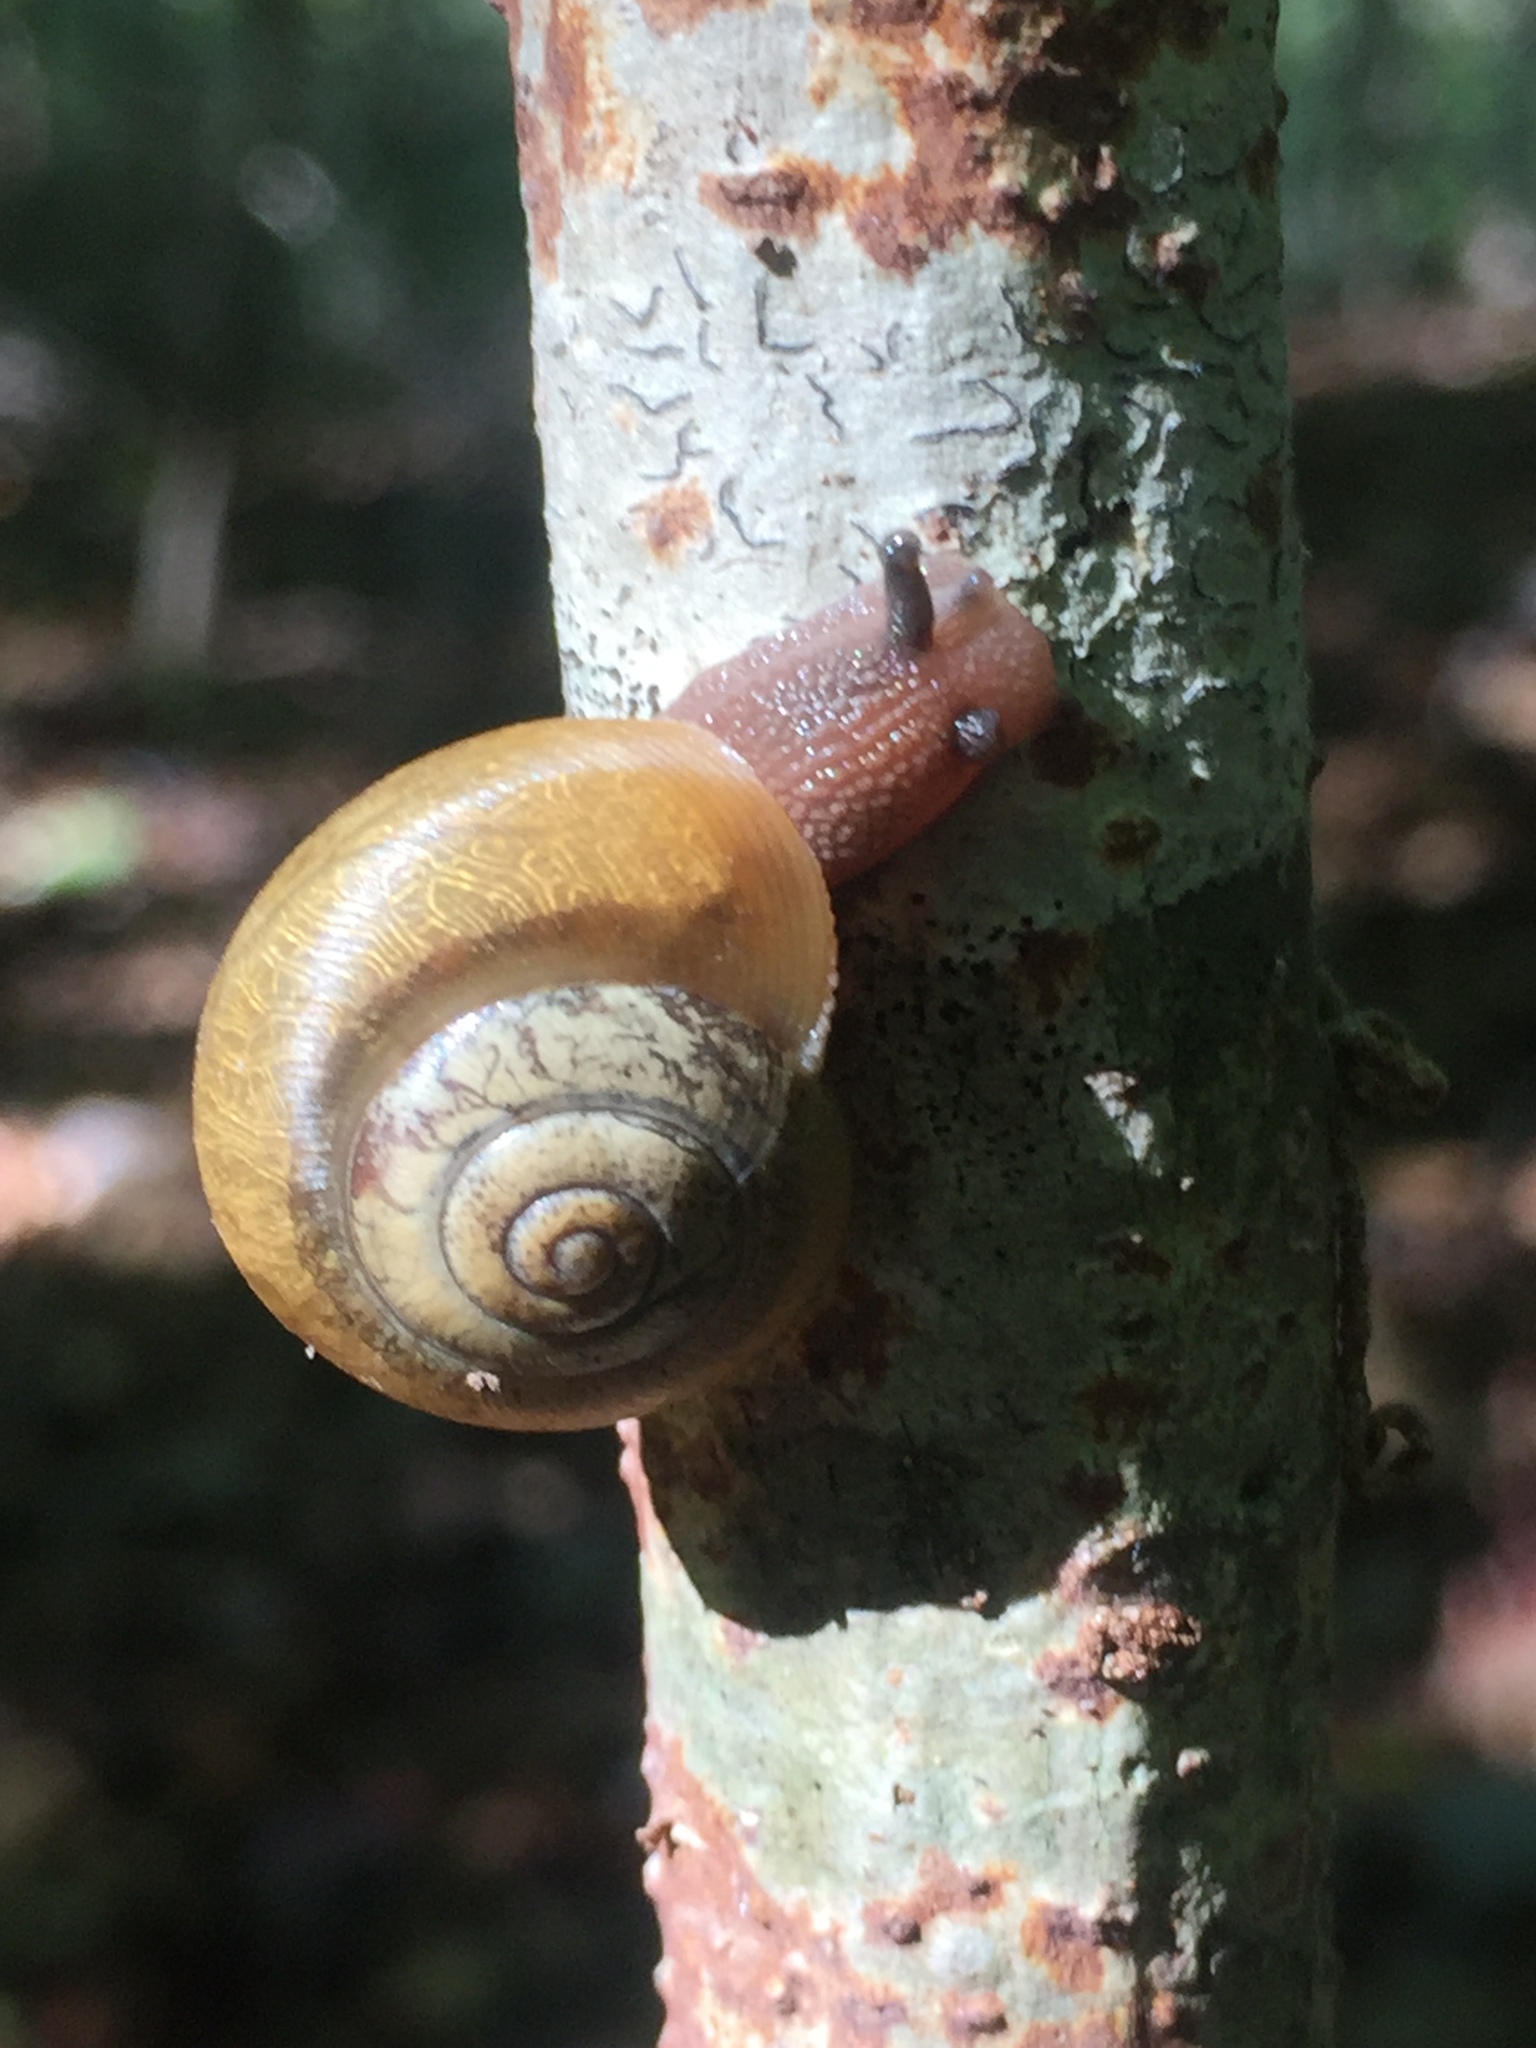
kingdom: Animalia
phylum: Mollusca
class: Gastropoda
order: Stylommatophora
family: Polygyridae
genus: Neohelix
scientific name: Neohelix albolabris
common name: Eastern whitelip
